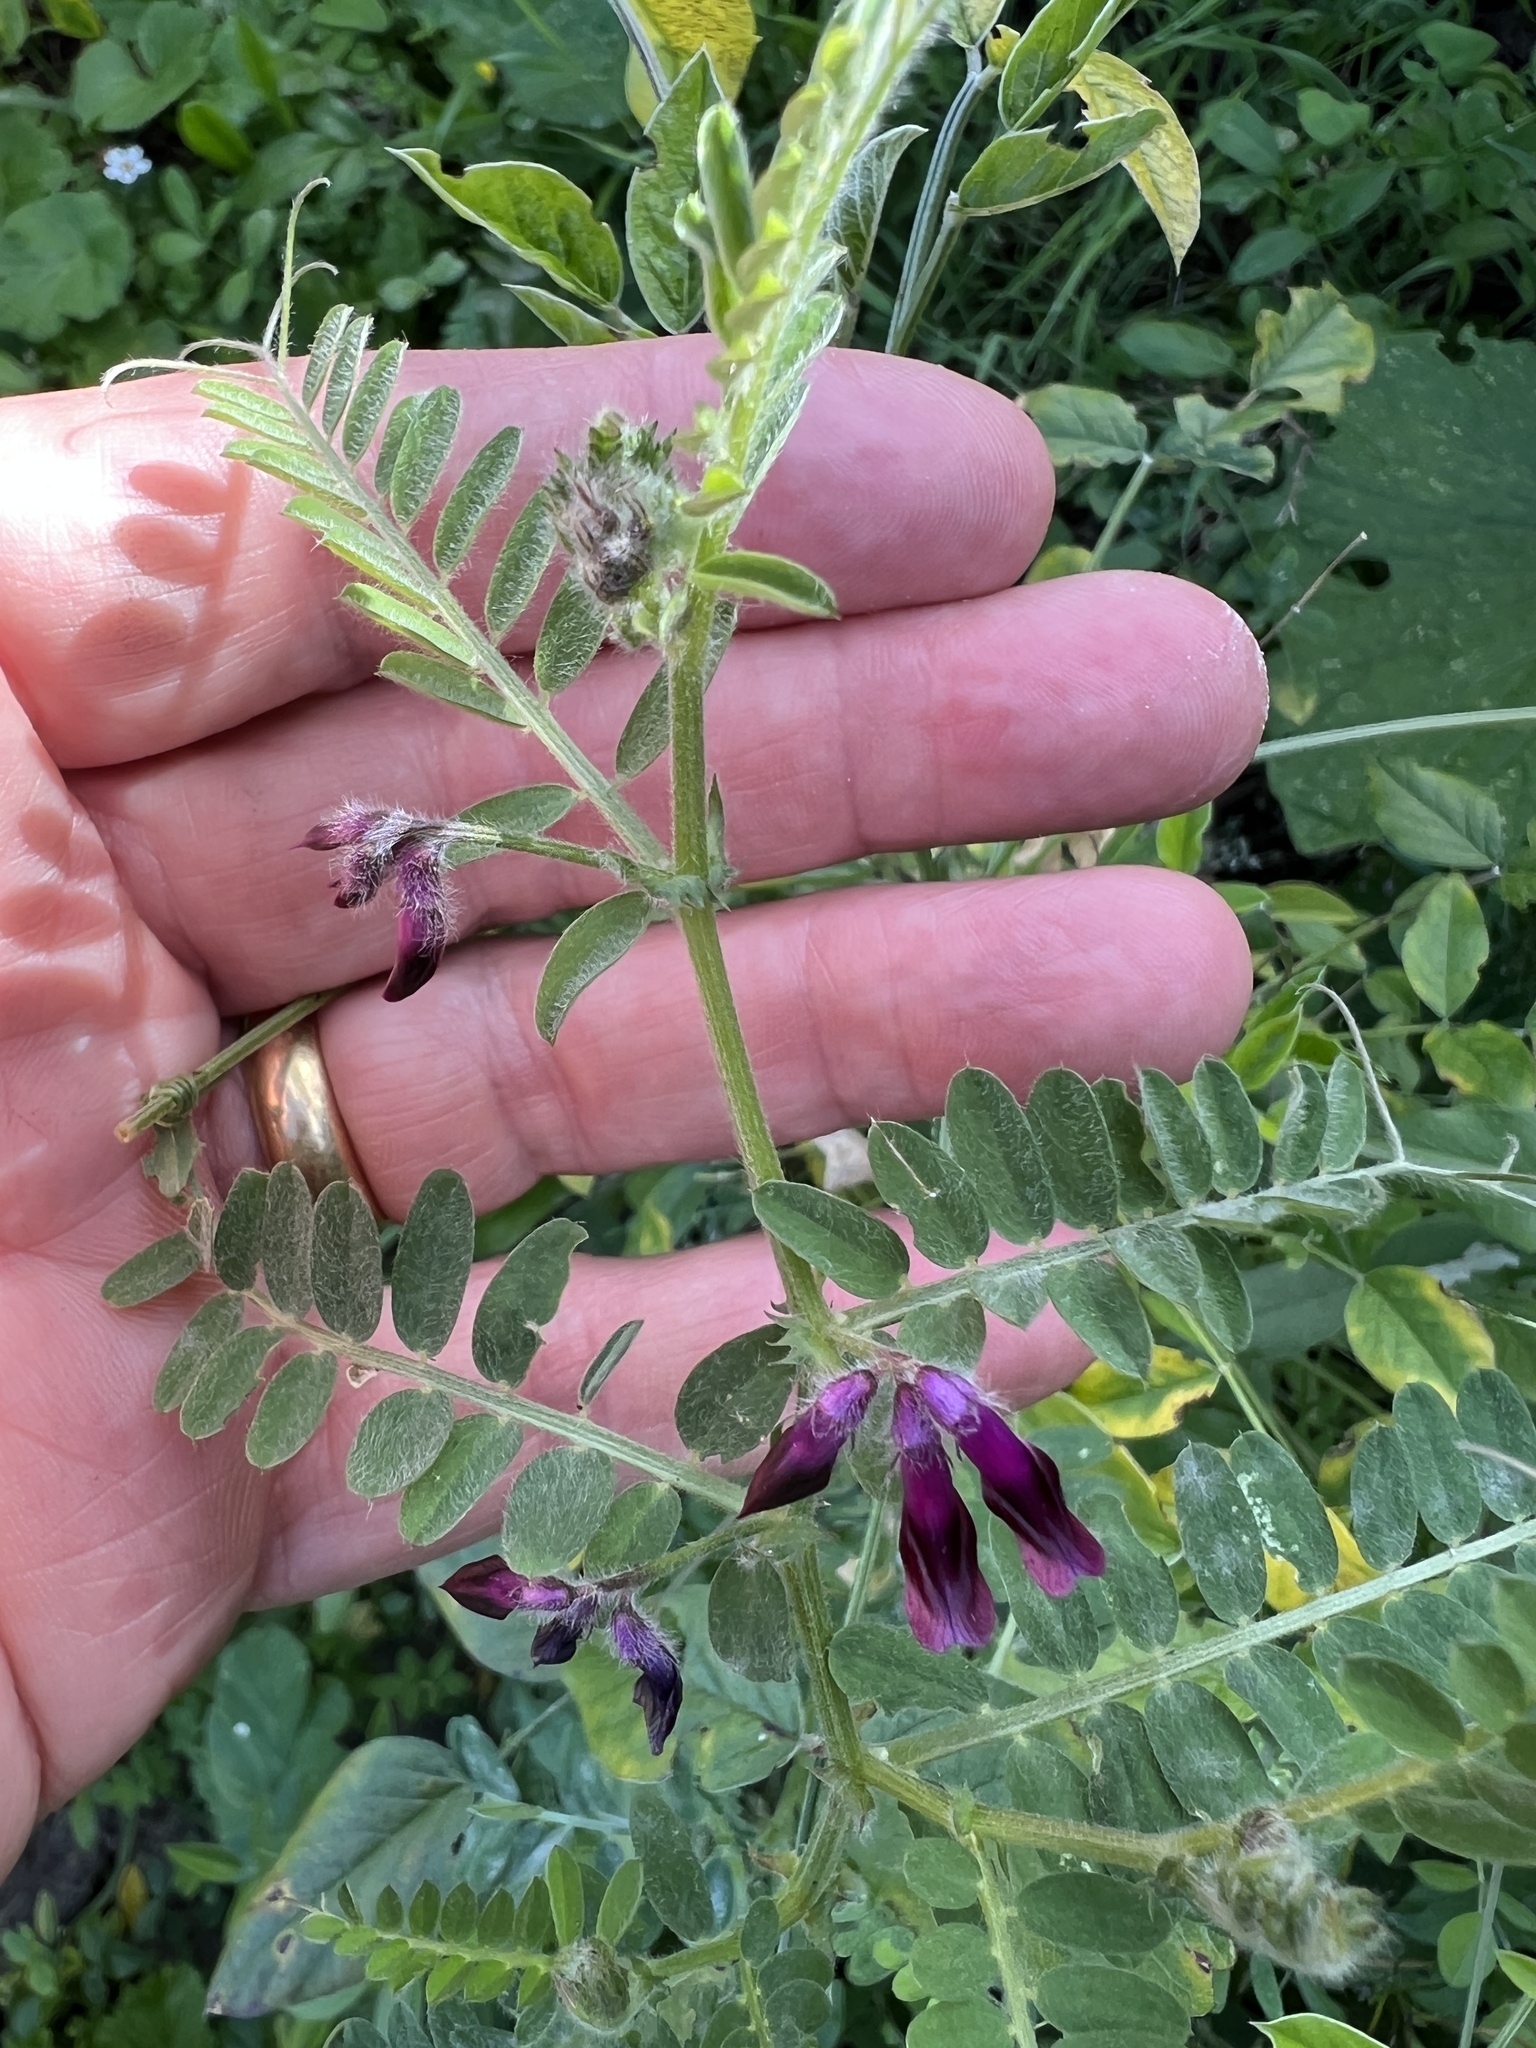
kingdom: Plantae
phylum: Tracheophyta
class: Magnoliopsida
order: Fabales
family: Fabaceae
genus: Vicia
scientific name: Vicia benghalensis
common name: Purple vetch
